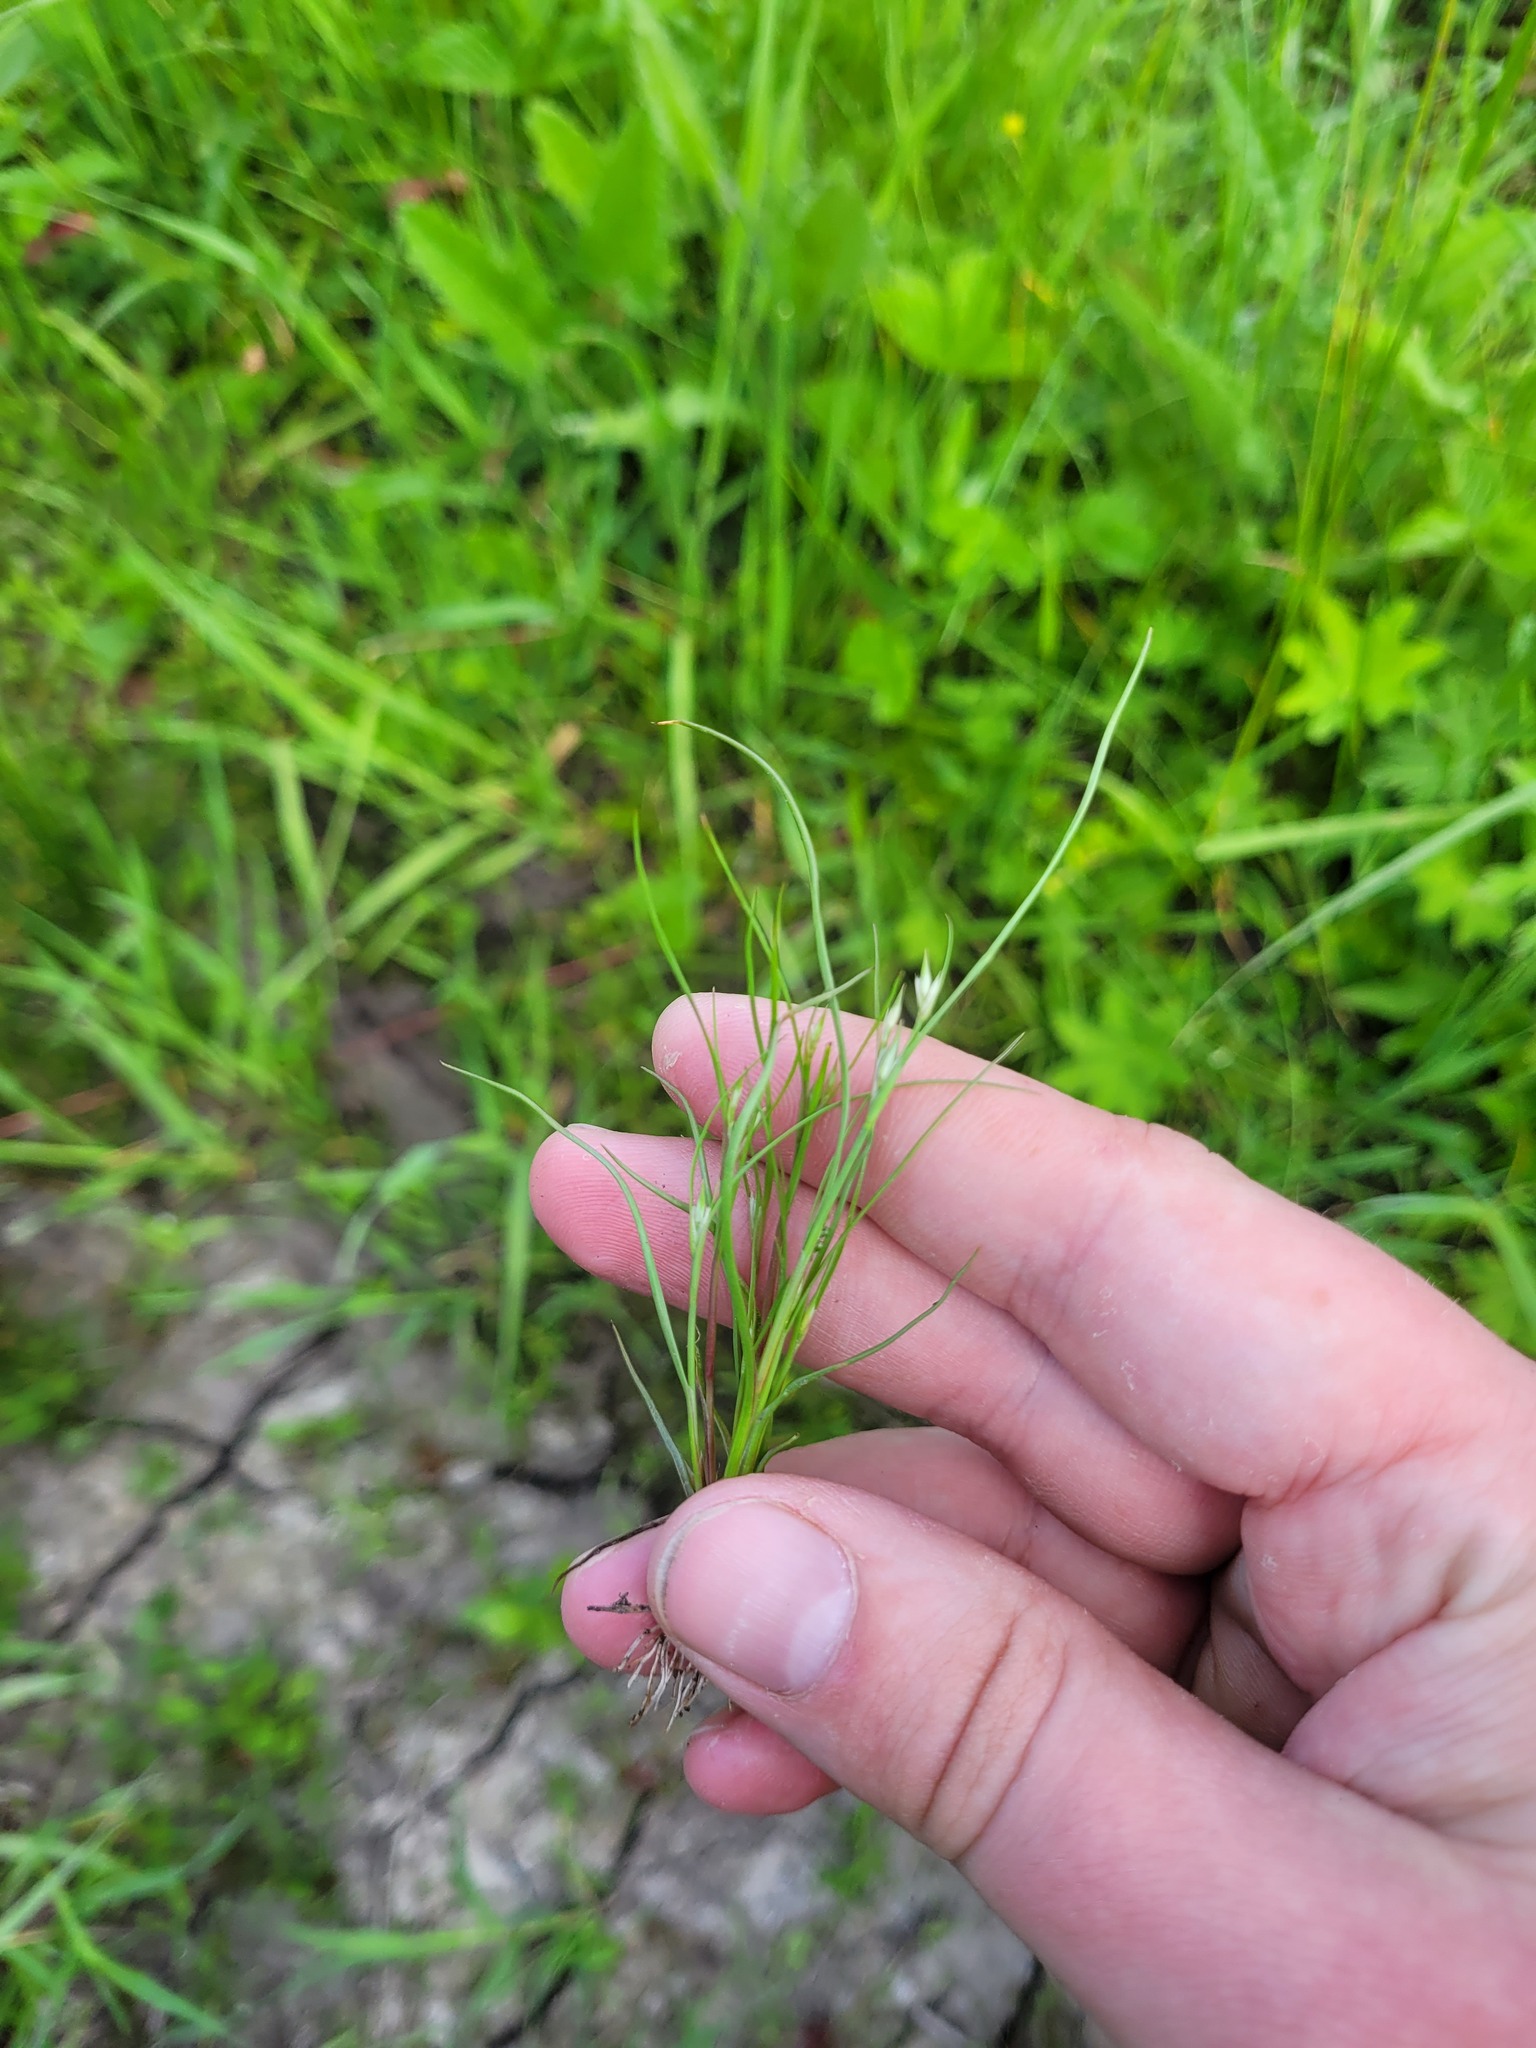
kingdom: Plantae
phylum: Tracheophyta
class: Liliopsida
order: Poales
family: Juncaceae
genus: Juncus
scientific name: Juncus bufonius
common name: Toad rush
